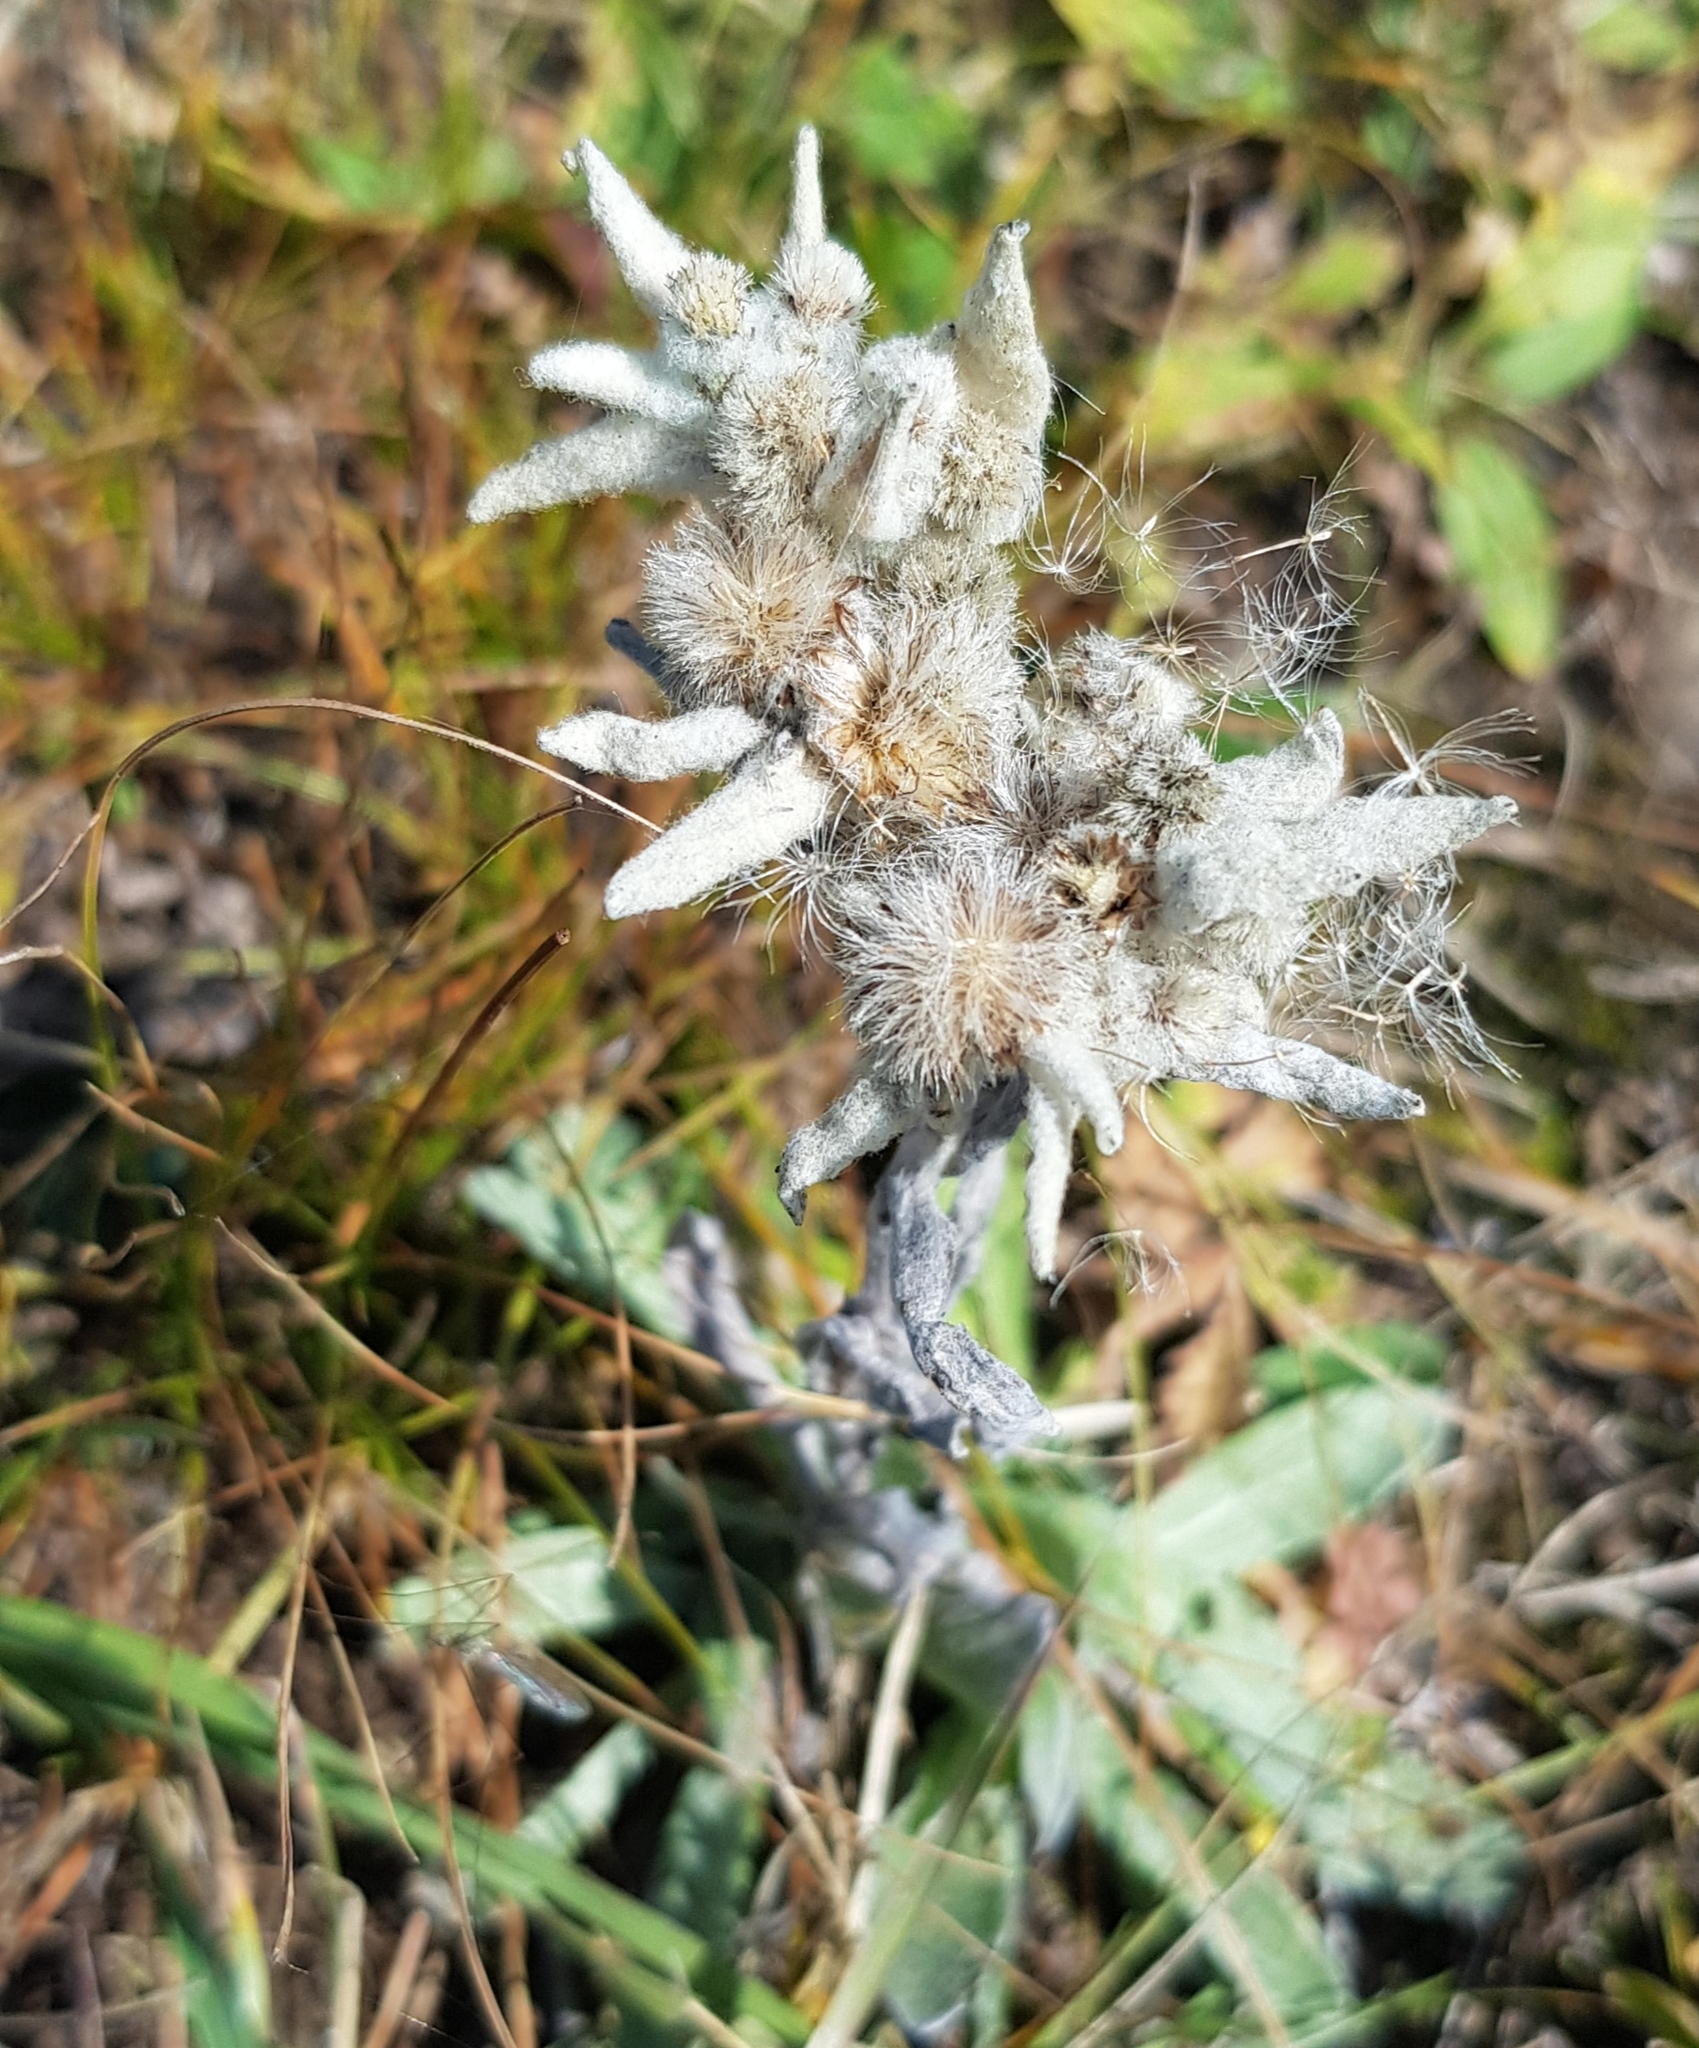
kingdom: Plantae
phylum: Tracheophyta
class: Magnoliopsida
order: Asterales
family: Asteraceae
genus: Leontopodium
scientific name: Leontopodium leontopodinum
